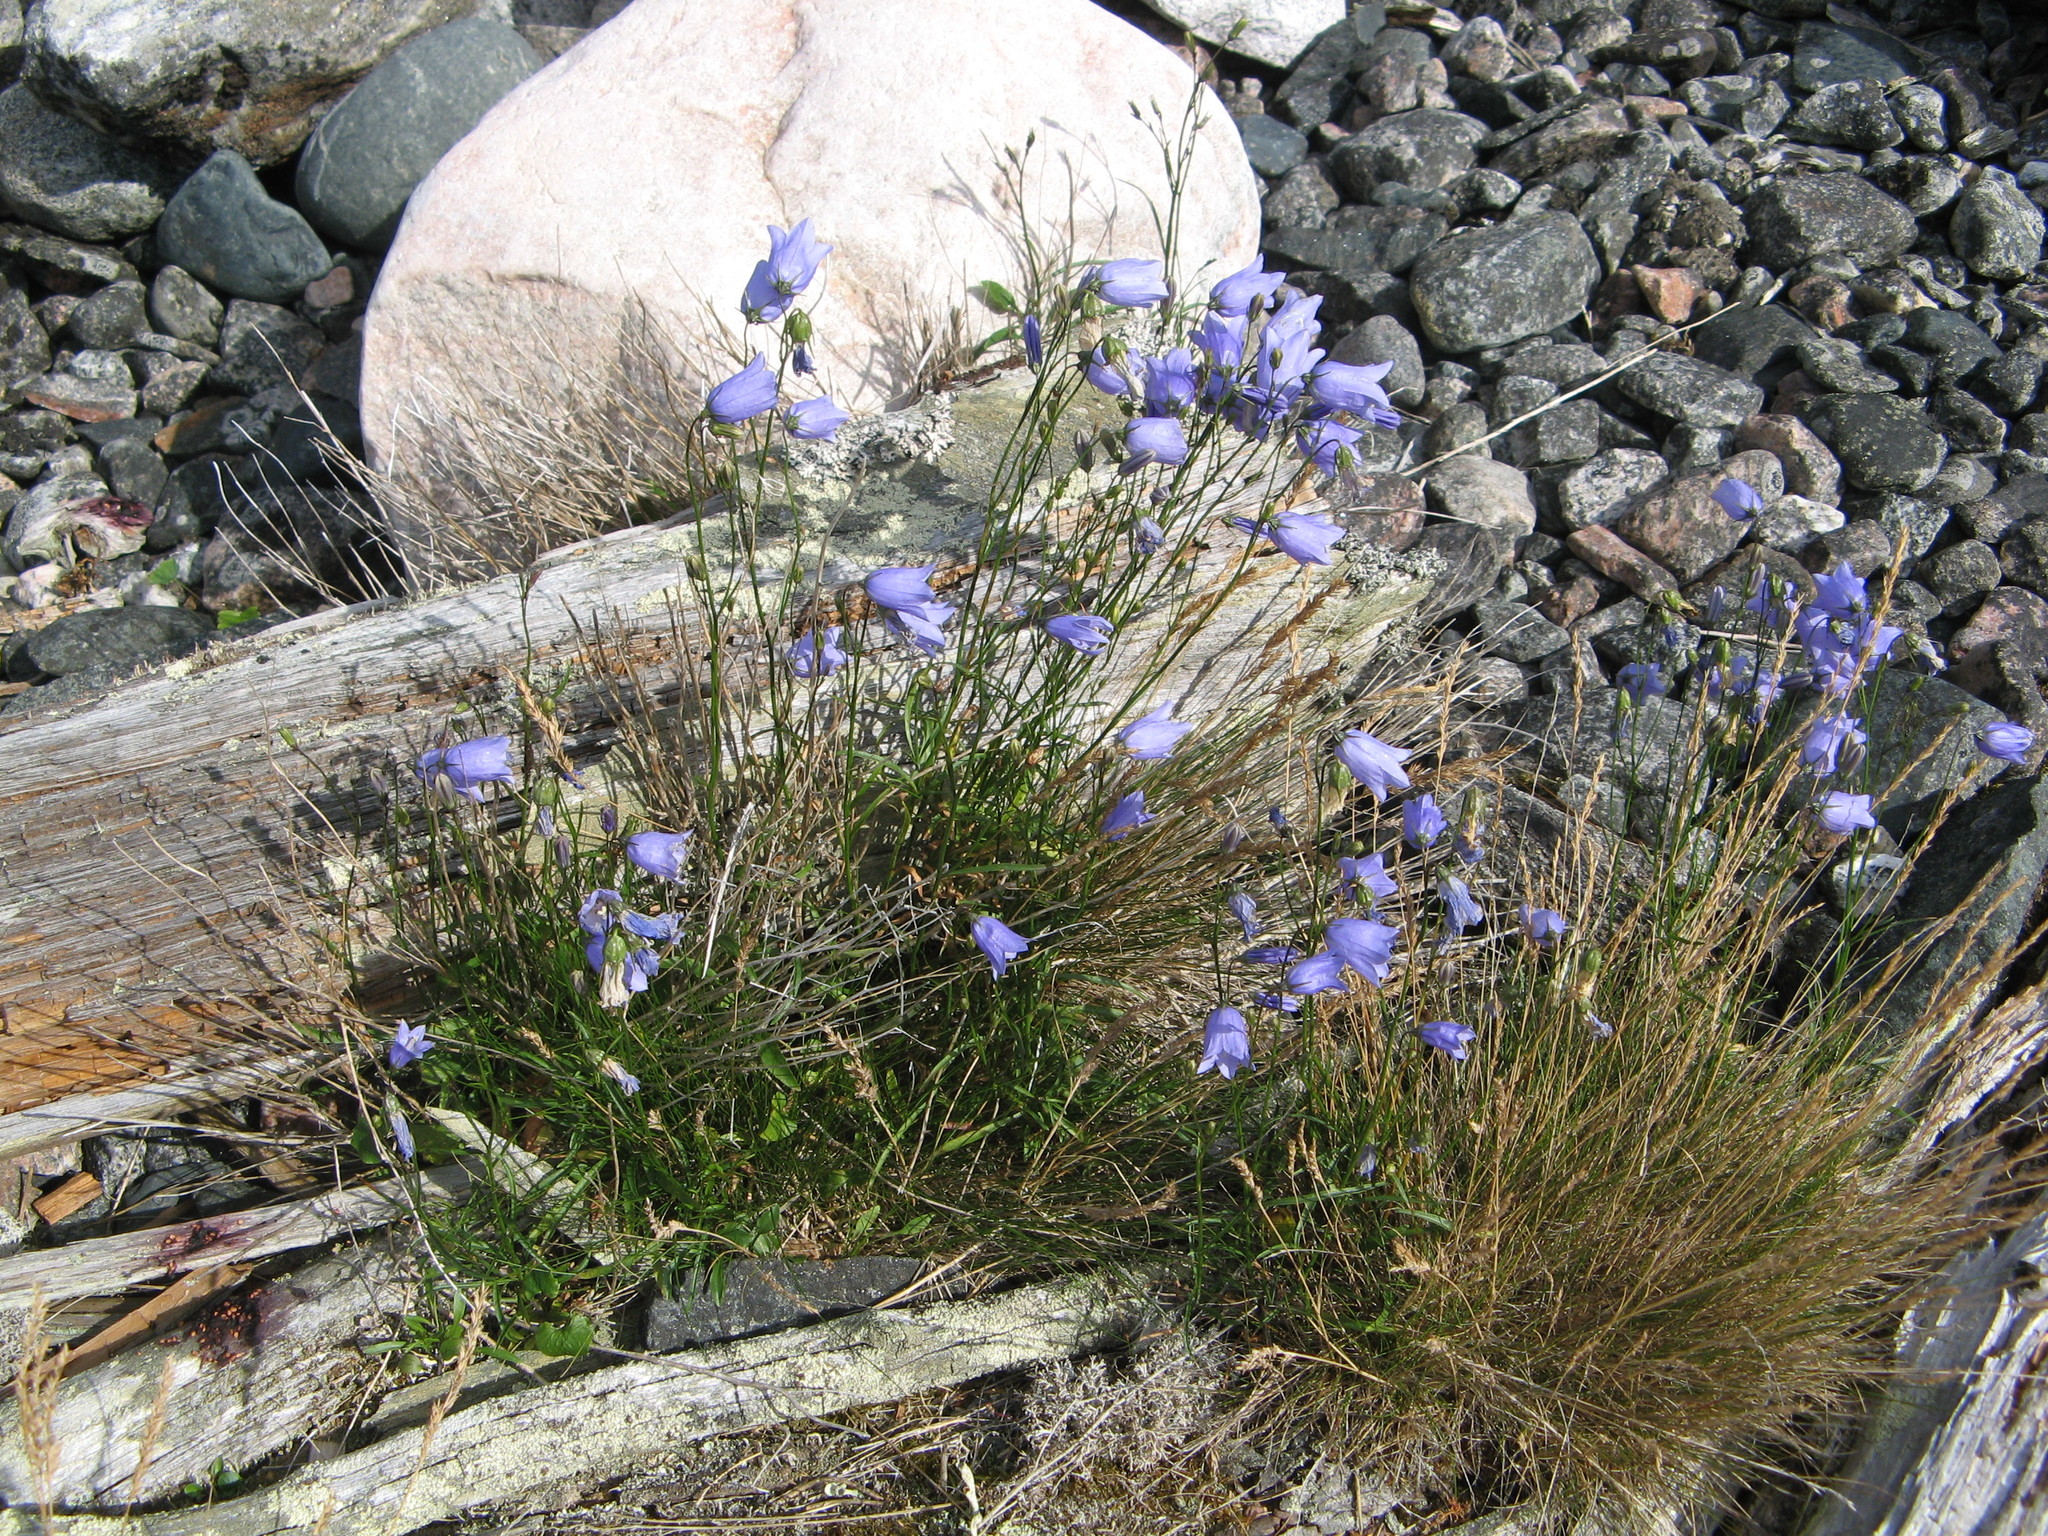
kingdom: Plantae
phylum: Tracheophyta
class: Magnoliopsida
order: Asterales
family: Campanulaceae
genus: Campanula
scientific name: Campanula rotundifolia
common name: Harebell
